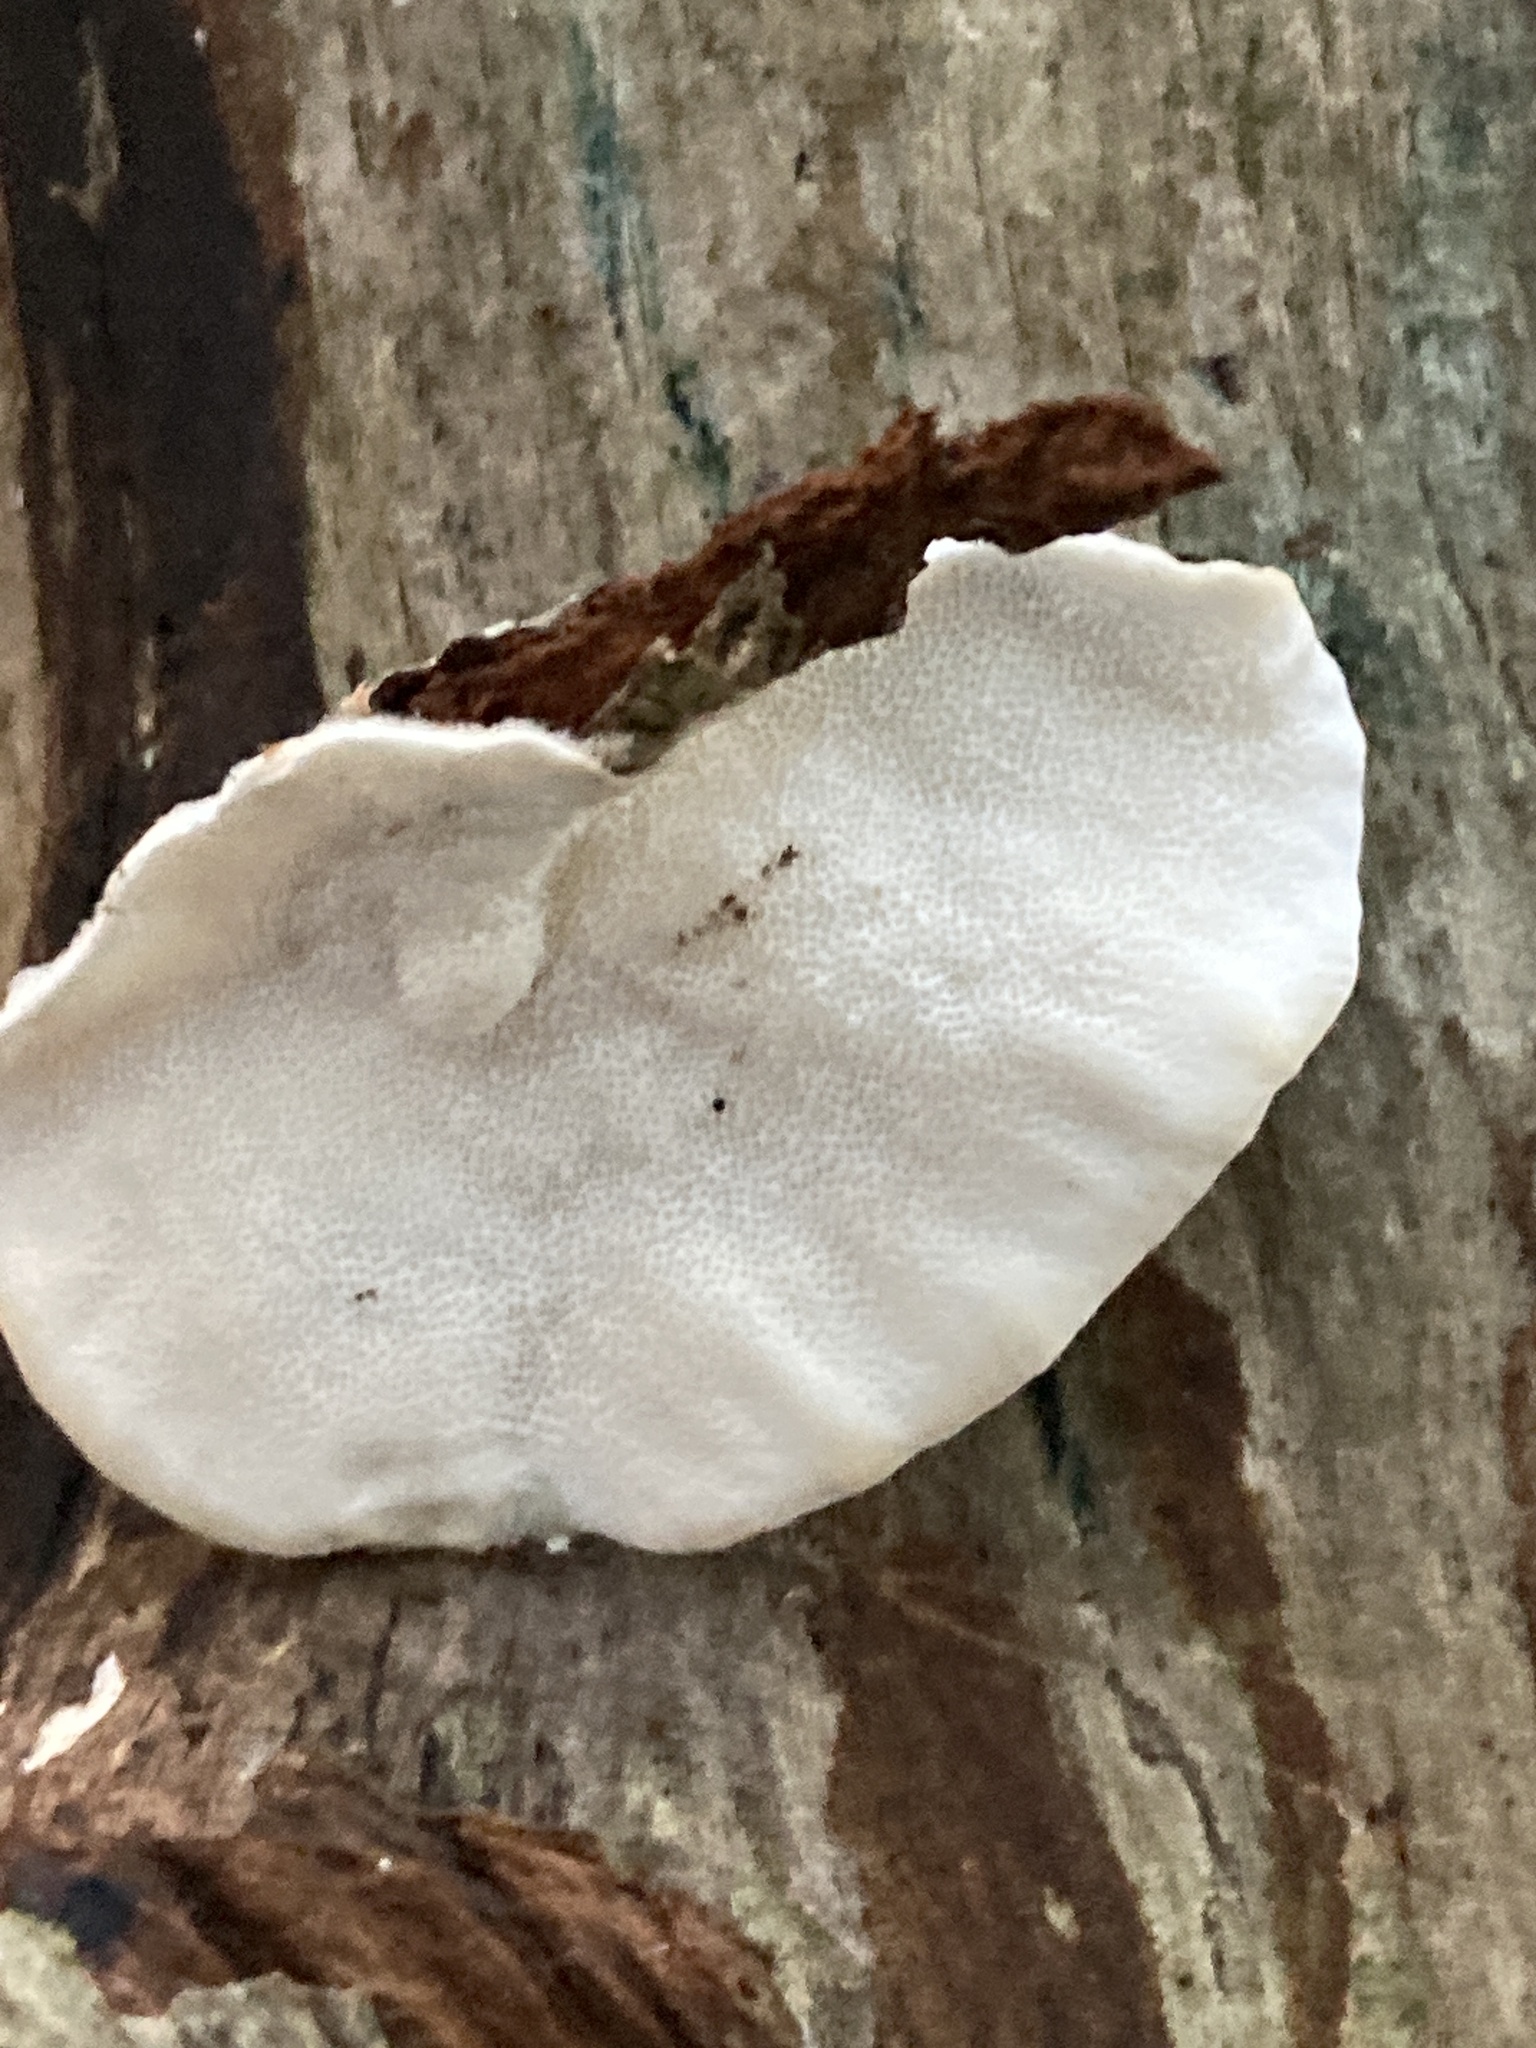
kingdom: Fungi
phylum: Basidiomycota
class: Agaricomycetes
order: Polyporales
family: Polyporaceae
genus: Trametes
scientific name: Trametes versicolor
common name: Turkeytail
